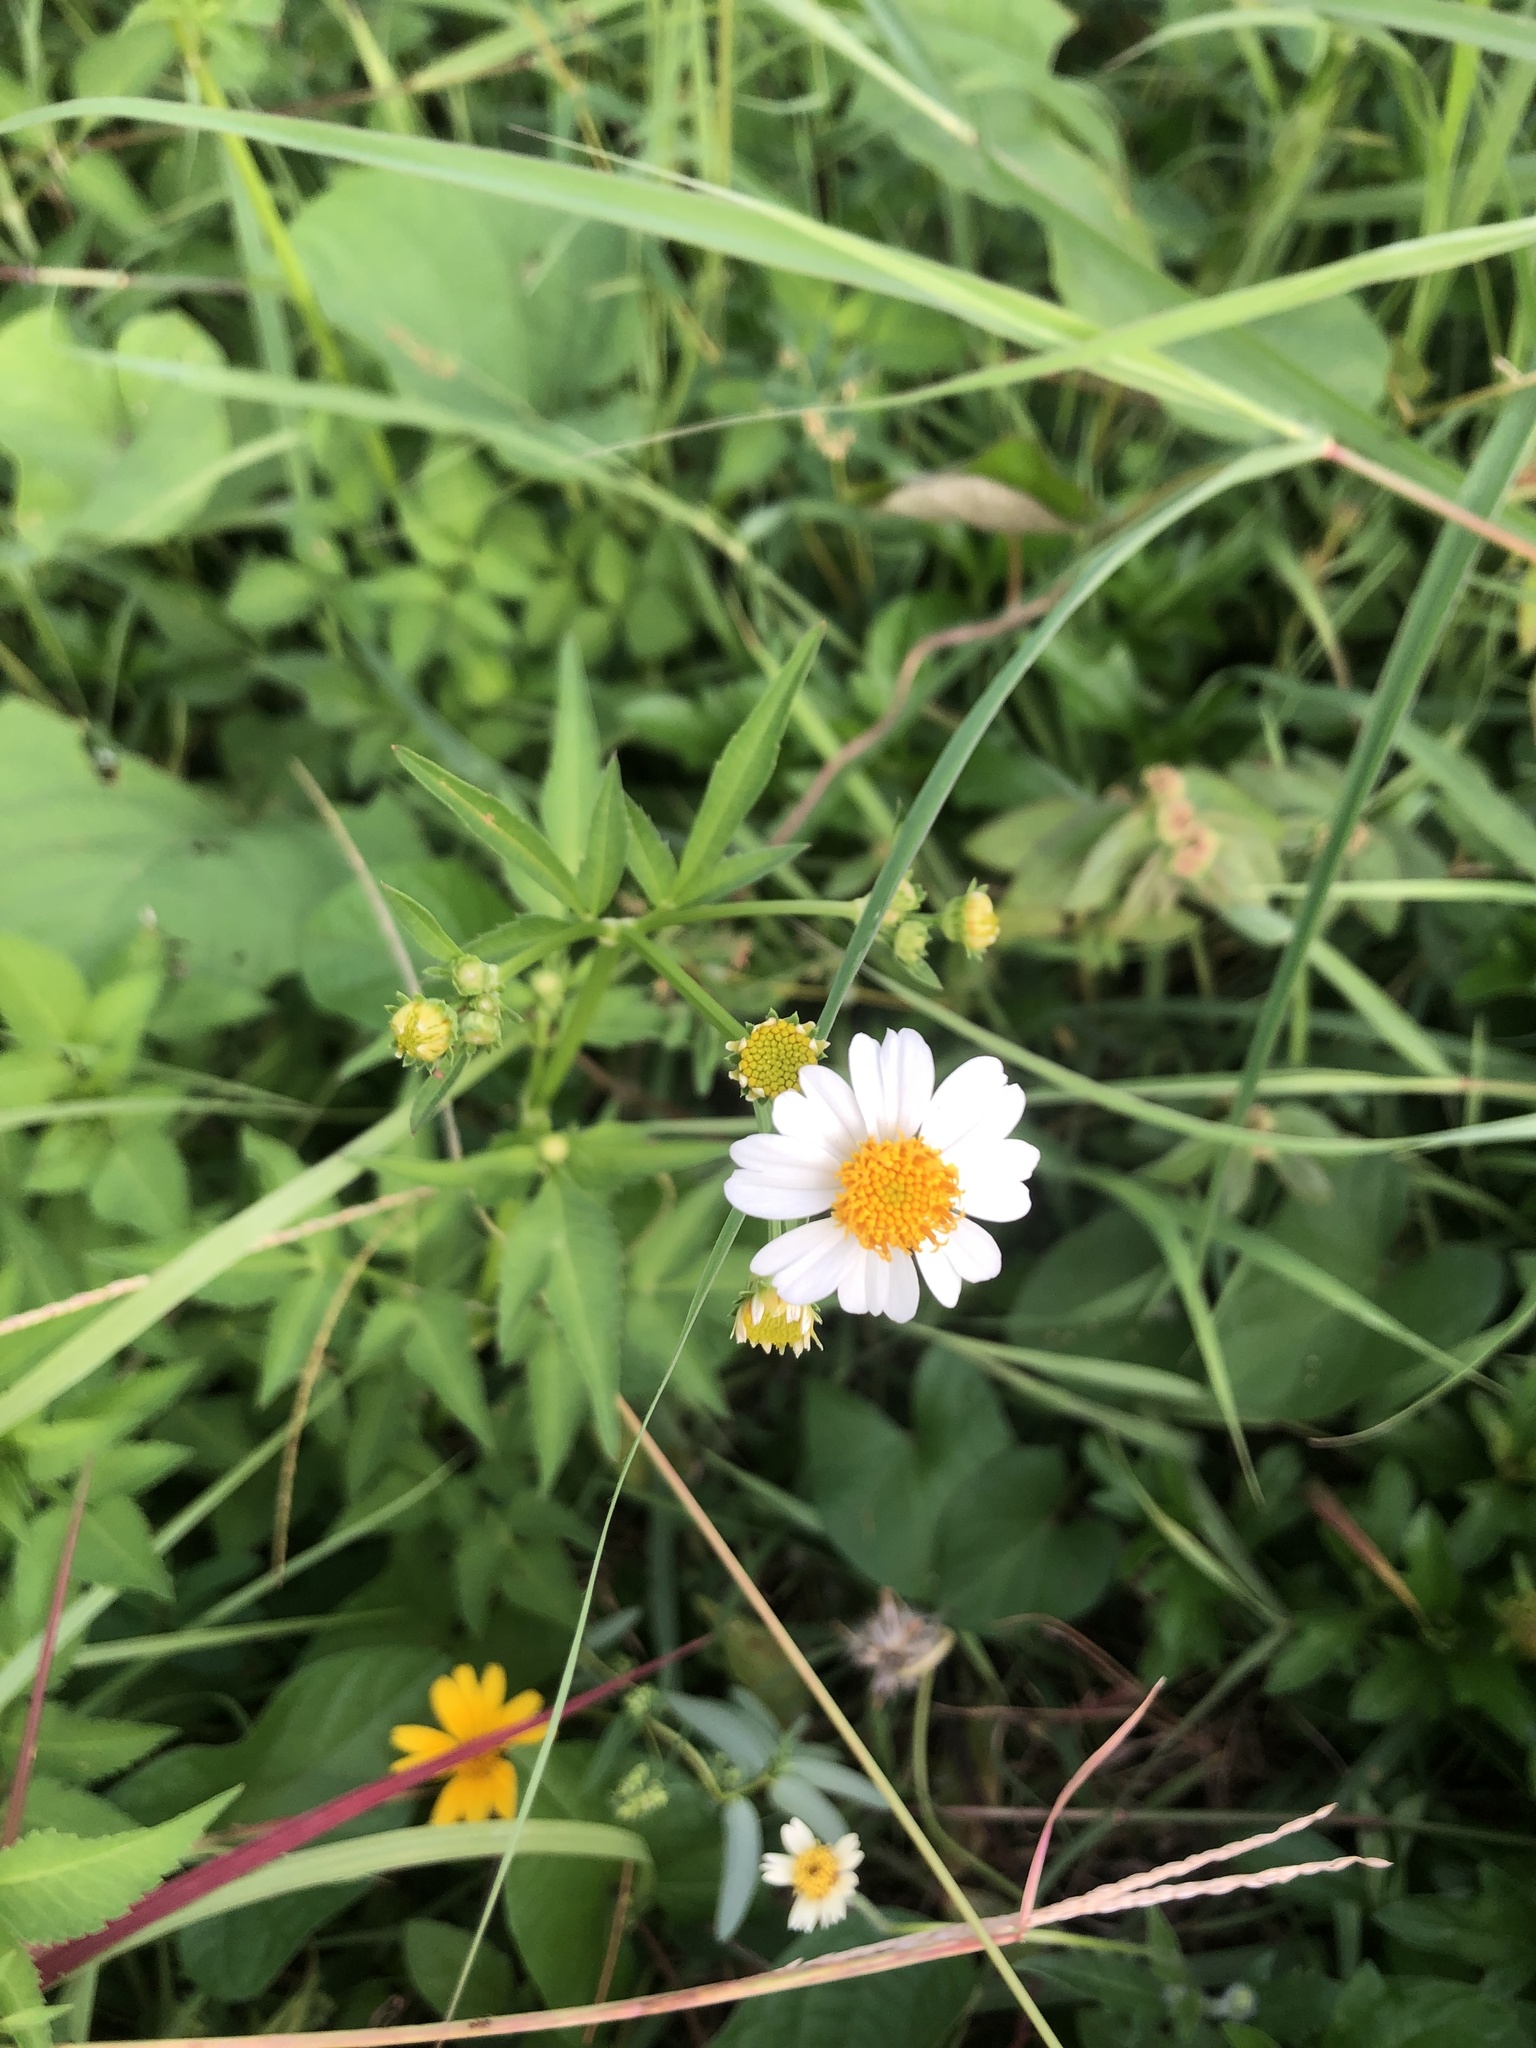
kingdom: Plantae
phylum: Tracheophyta
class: Magnoliopsida
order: Asterales
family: Asteraceae
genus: Bidens
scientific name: Bidens alba
